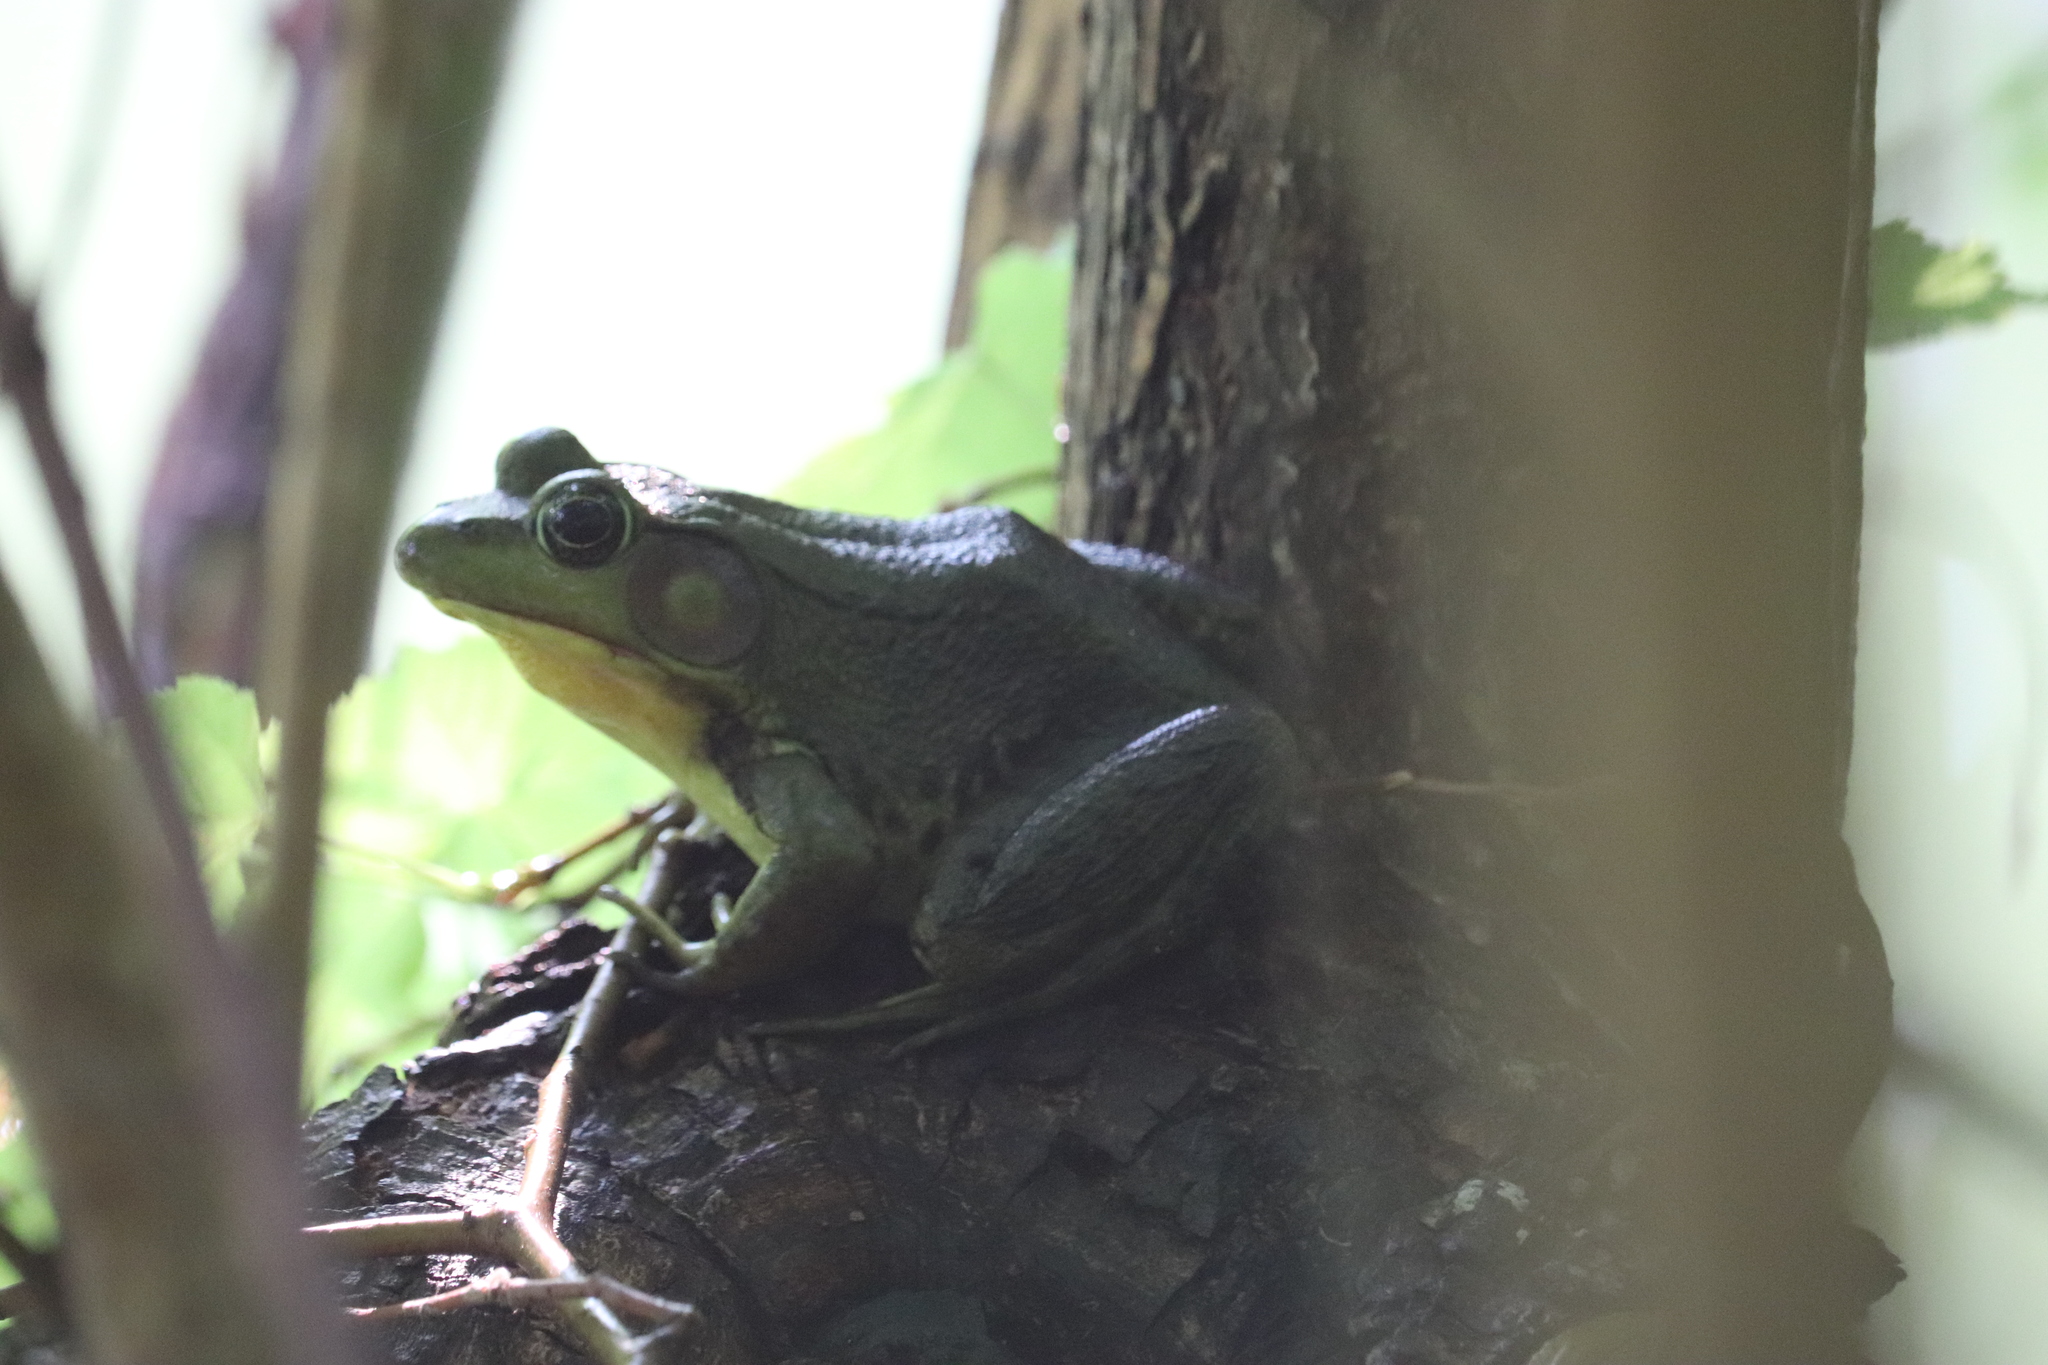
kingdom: Animalia
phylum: Chordata
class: Amphibia
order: Anura
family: Ranidae
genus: Lithobates
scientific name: Lithobates clamitans
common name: Green frog
